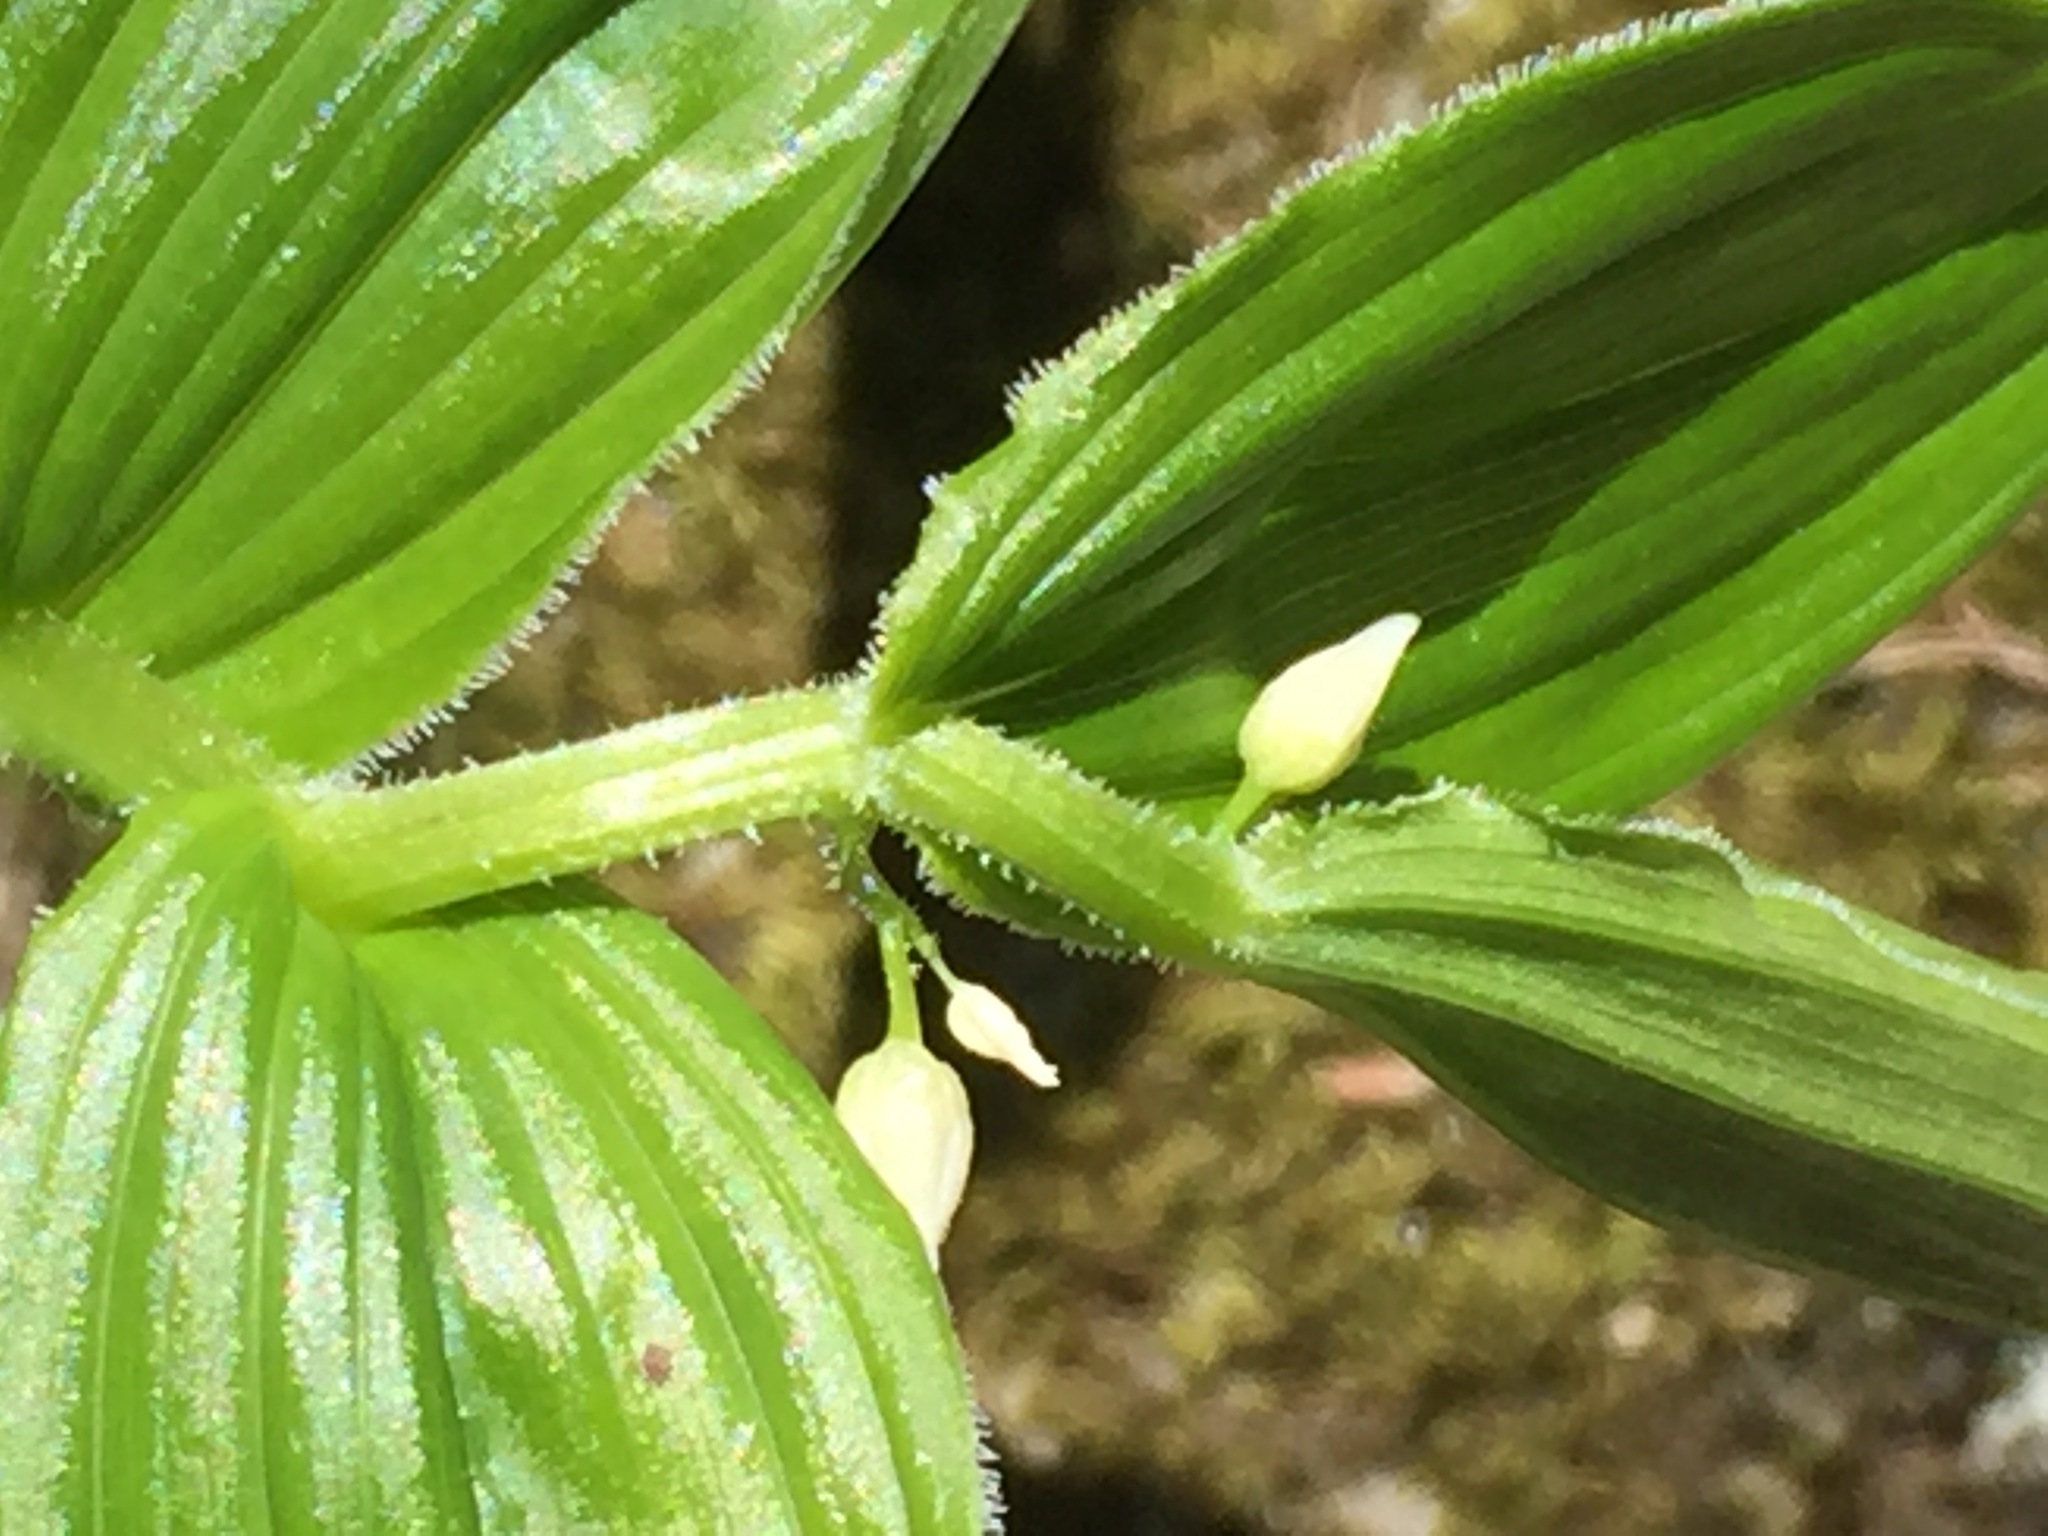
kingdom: Plantae
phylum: Tracheophyta
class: Liliopsida
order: Liliales
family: Liliaceae
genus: Streptopus
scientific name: Streptopus lanceolatus
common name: Rose mandarin
